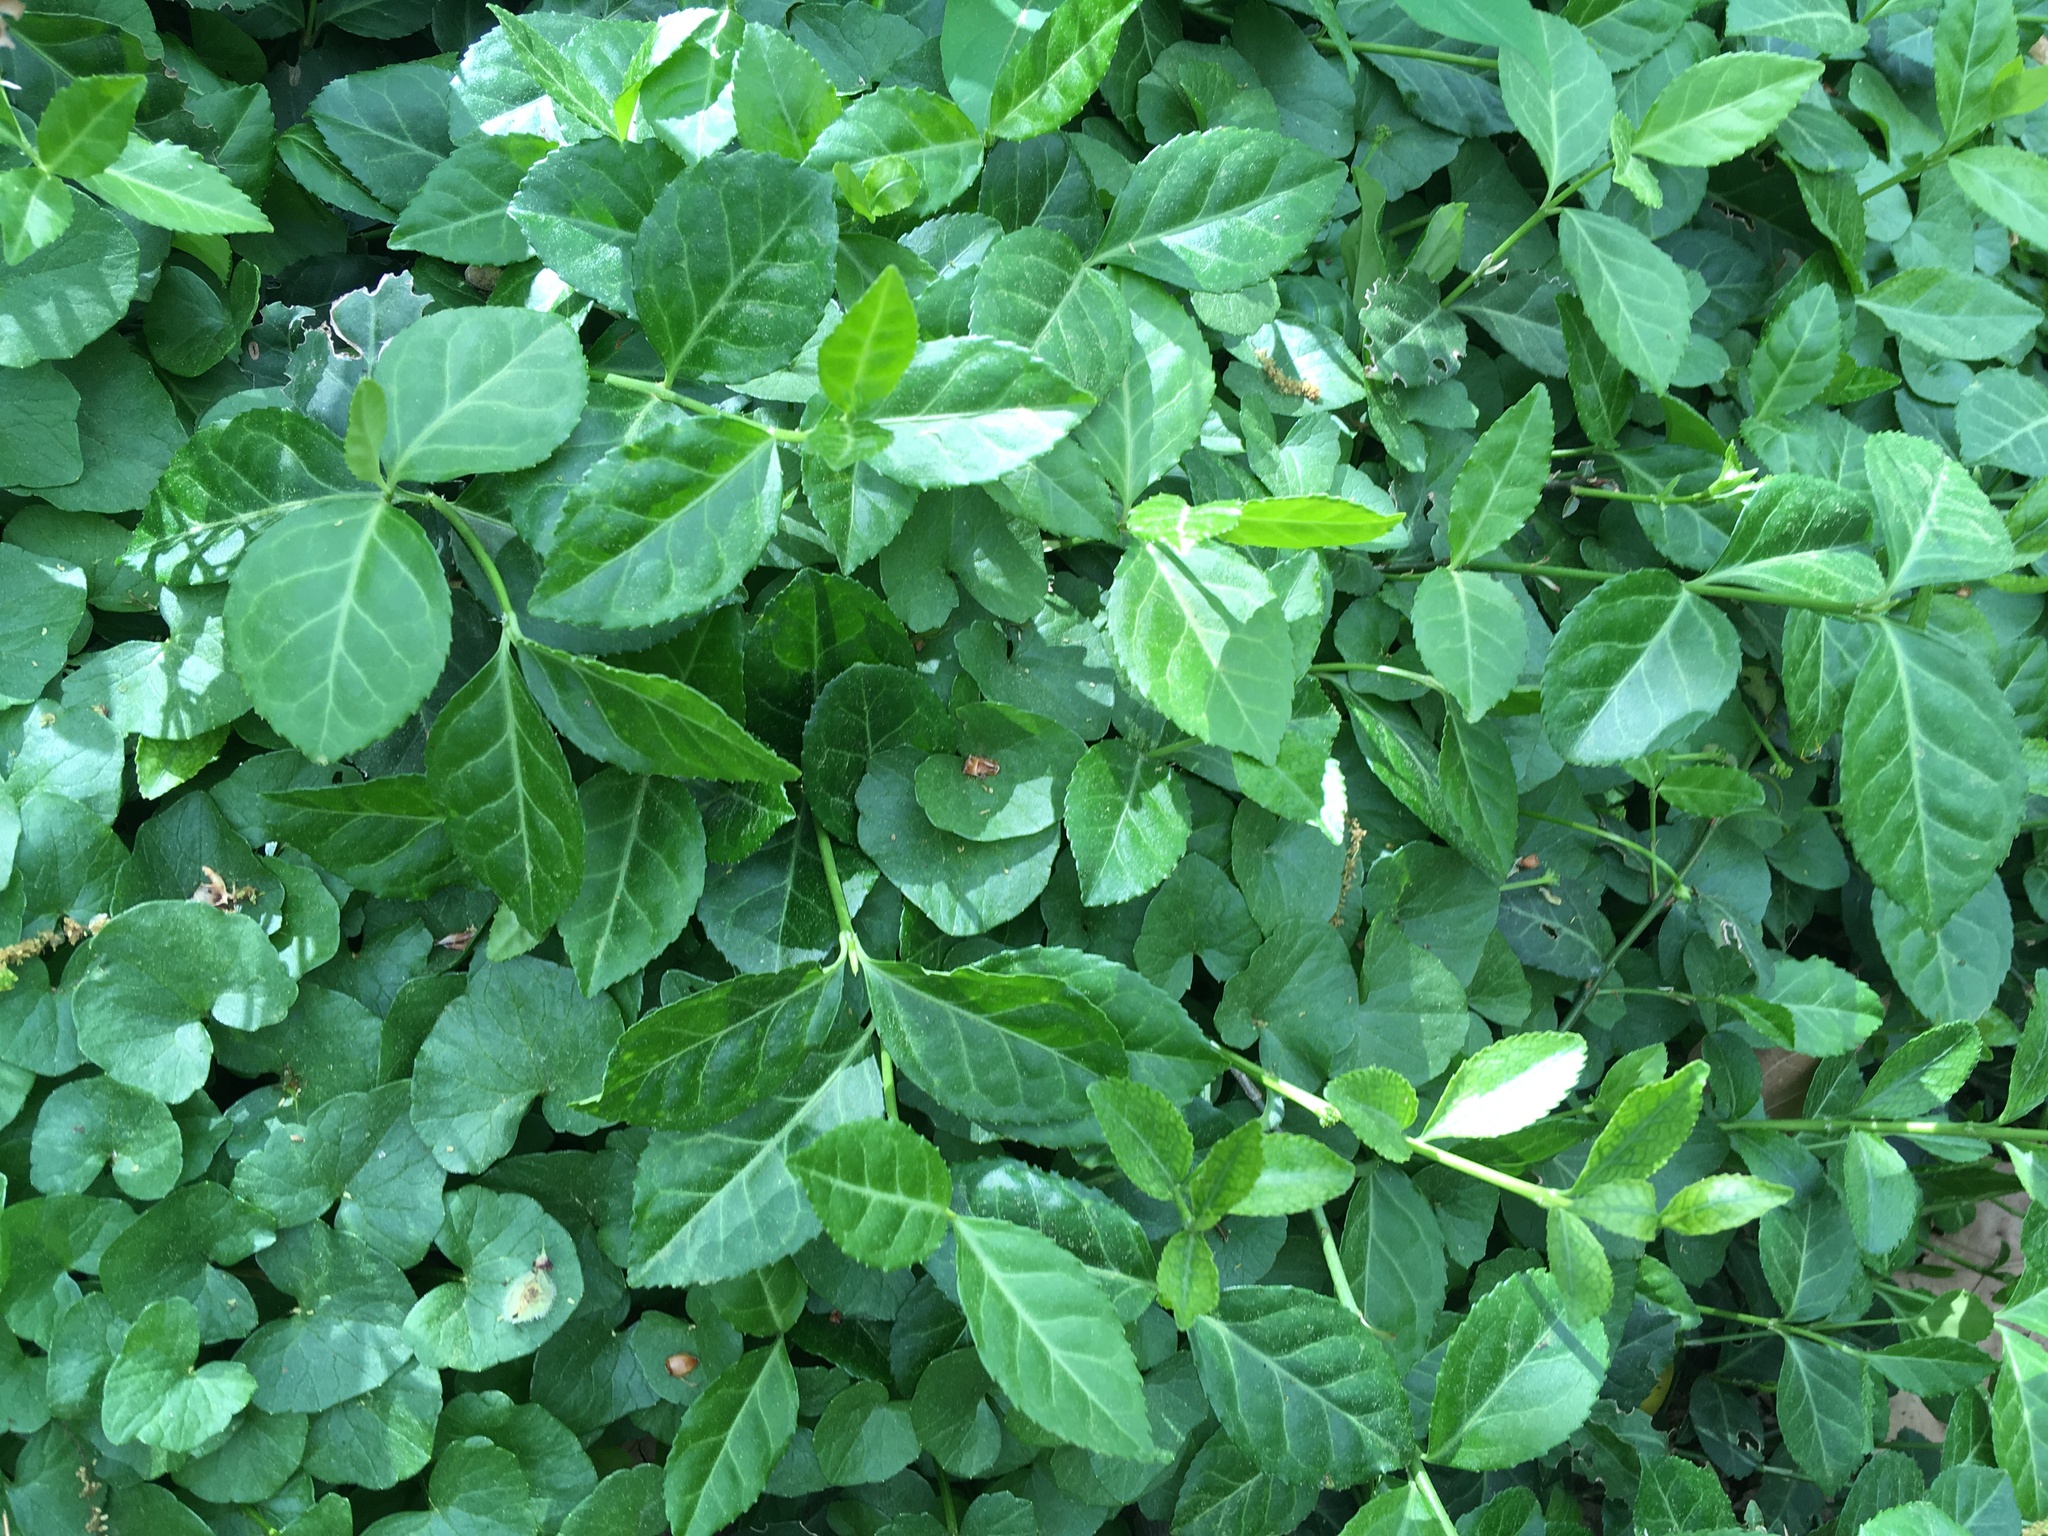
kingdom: Plantae
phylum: Tracheophyta
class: Magnoliopsida
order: Celastrales
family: Celastraceae
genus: Euonymus
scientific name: Euonymus fortunei
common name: Climbing euonymus
